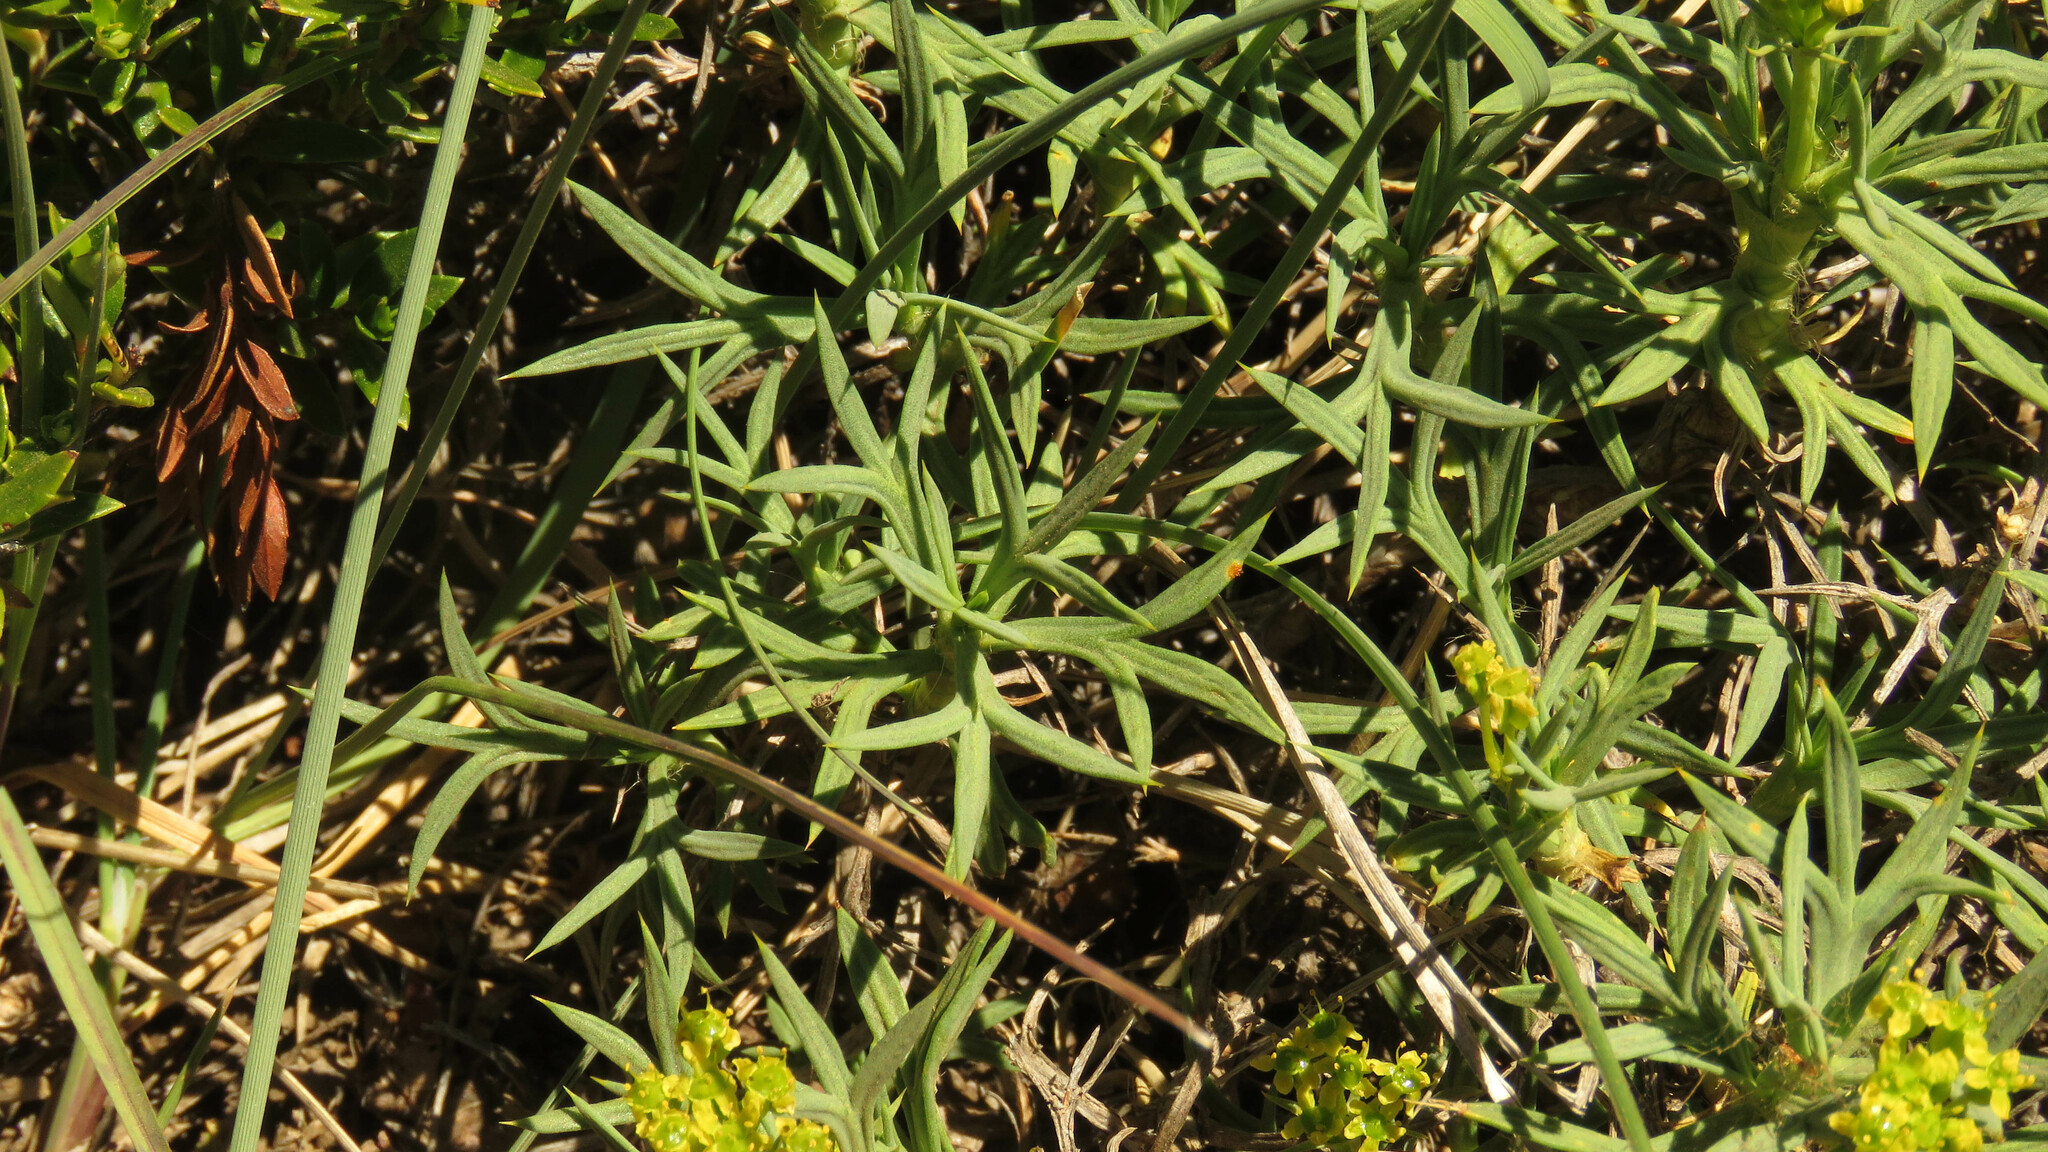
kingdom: Plantae
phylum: Tracheophyta
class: Magnoliopsida
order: Apiales
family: Apiaceae
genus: Azorella
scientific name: Azorella prolifera
